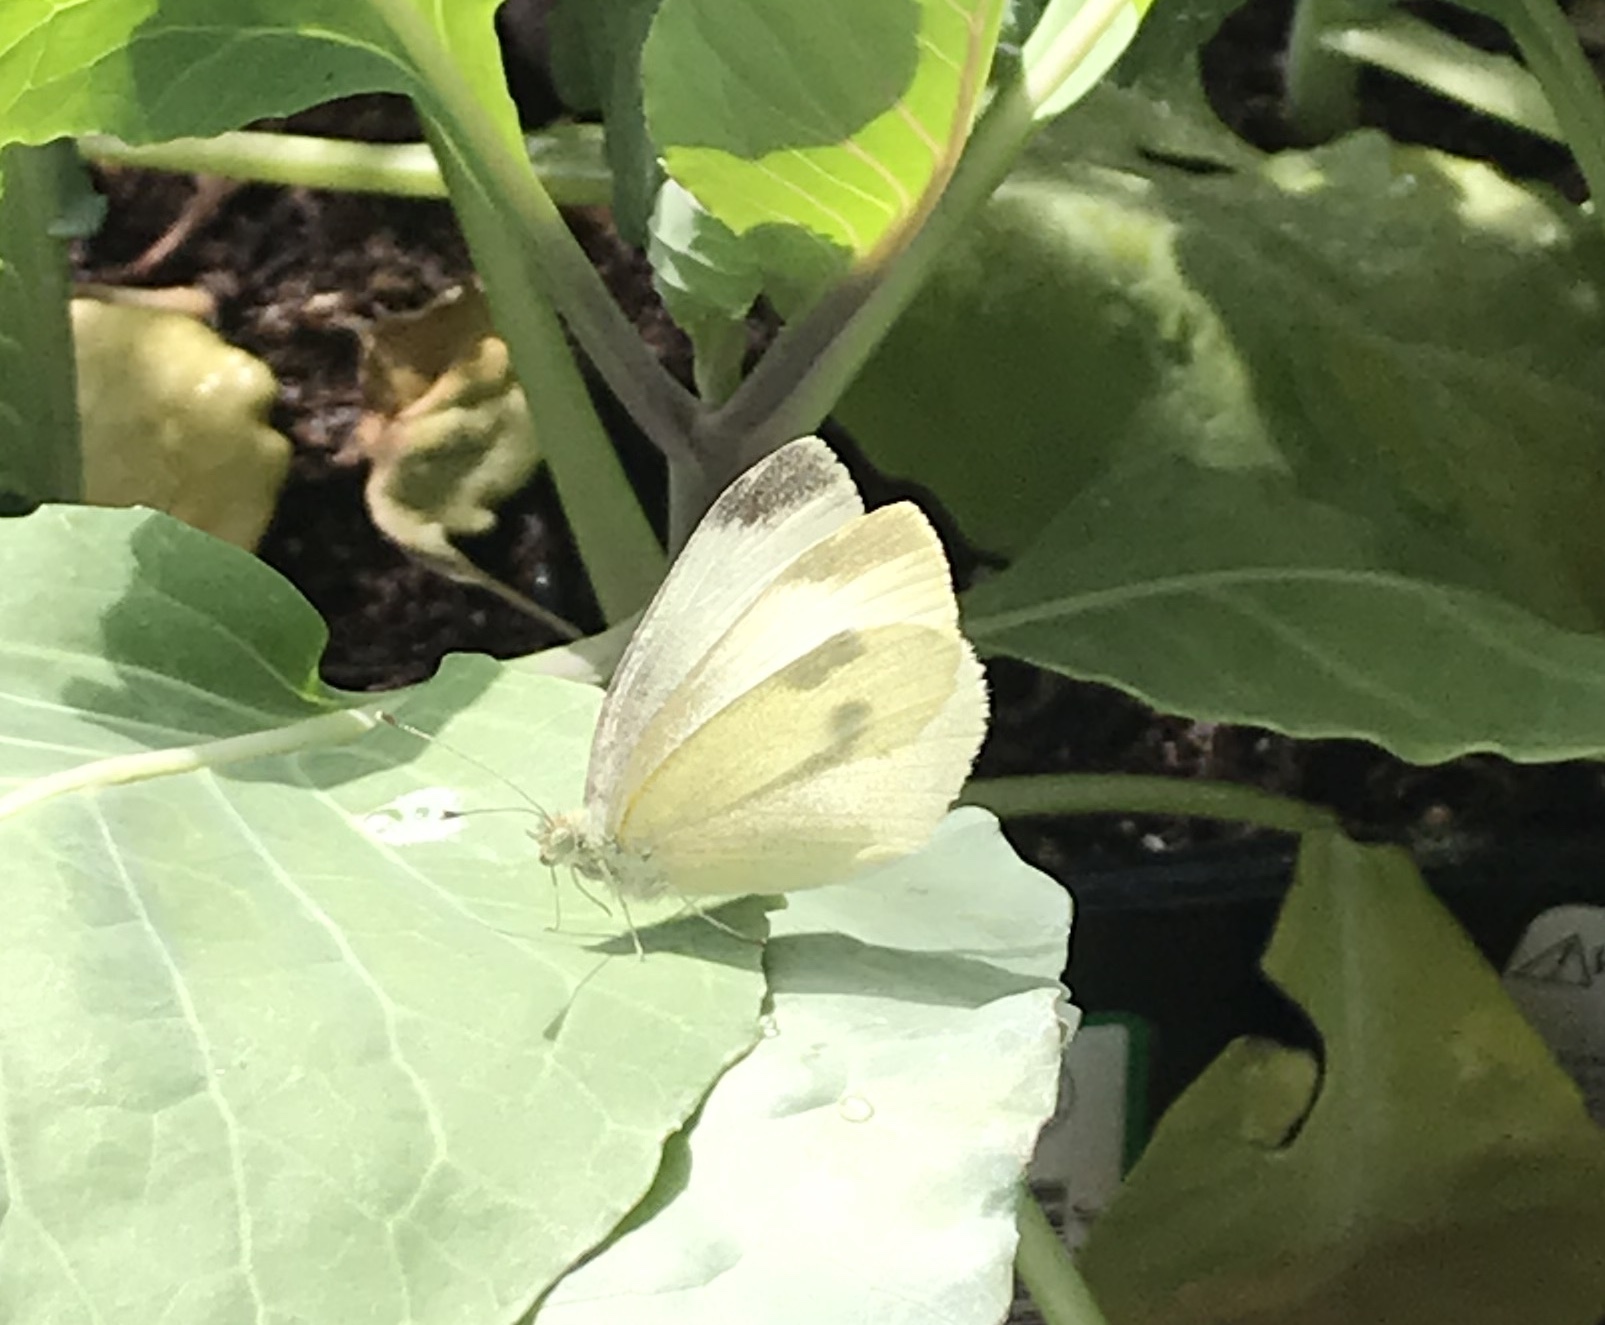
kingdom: Animalia
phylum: Arthropoda
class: Insecta
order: Lepidoptera
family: Pieridae
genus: Pieris
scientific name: Pieris rapae
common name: Small white
